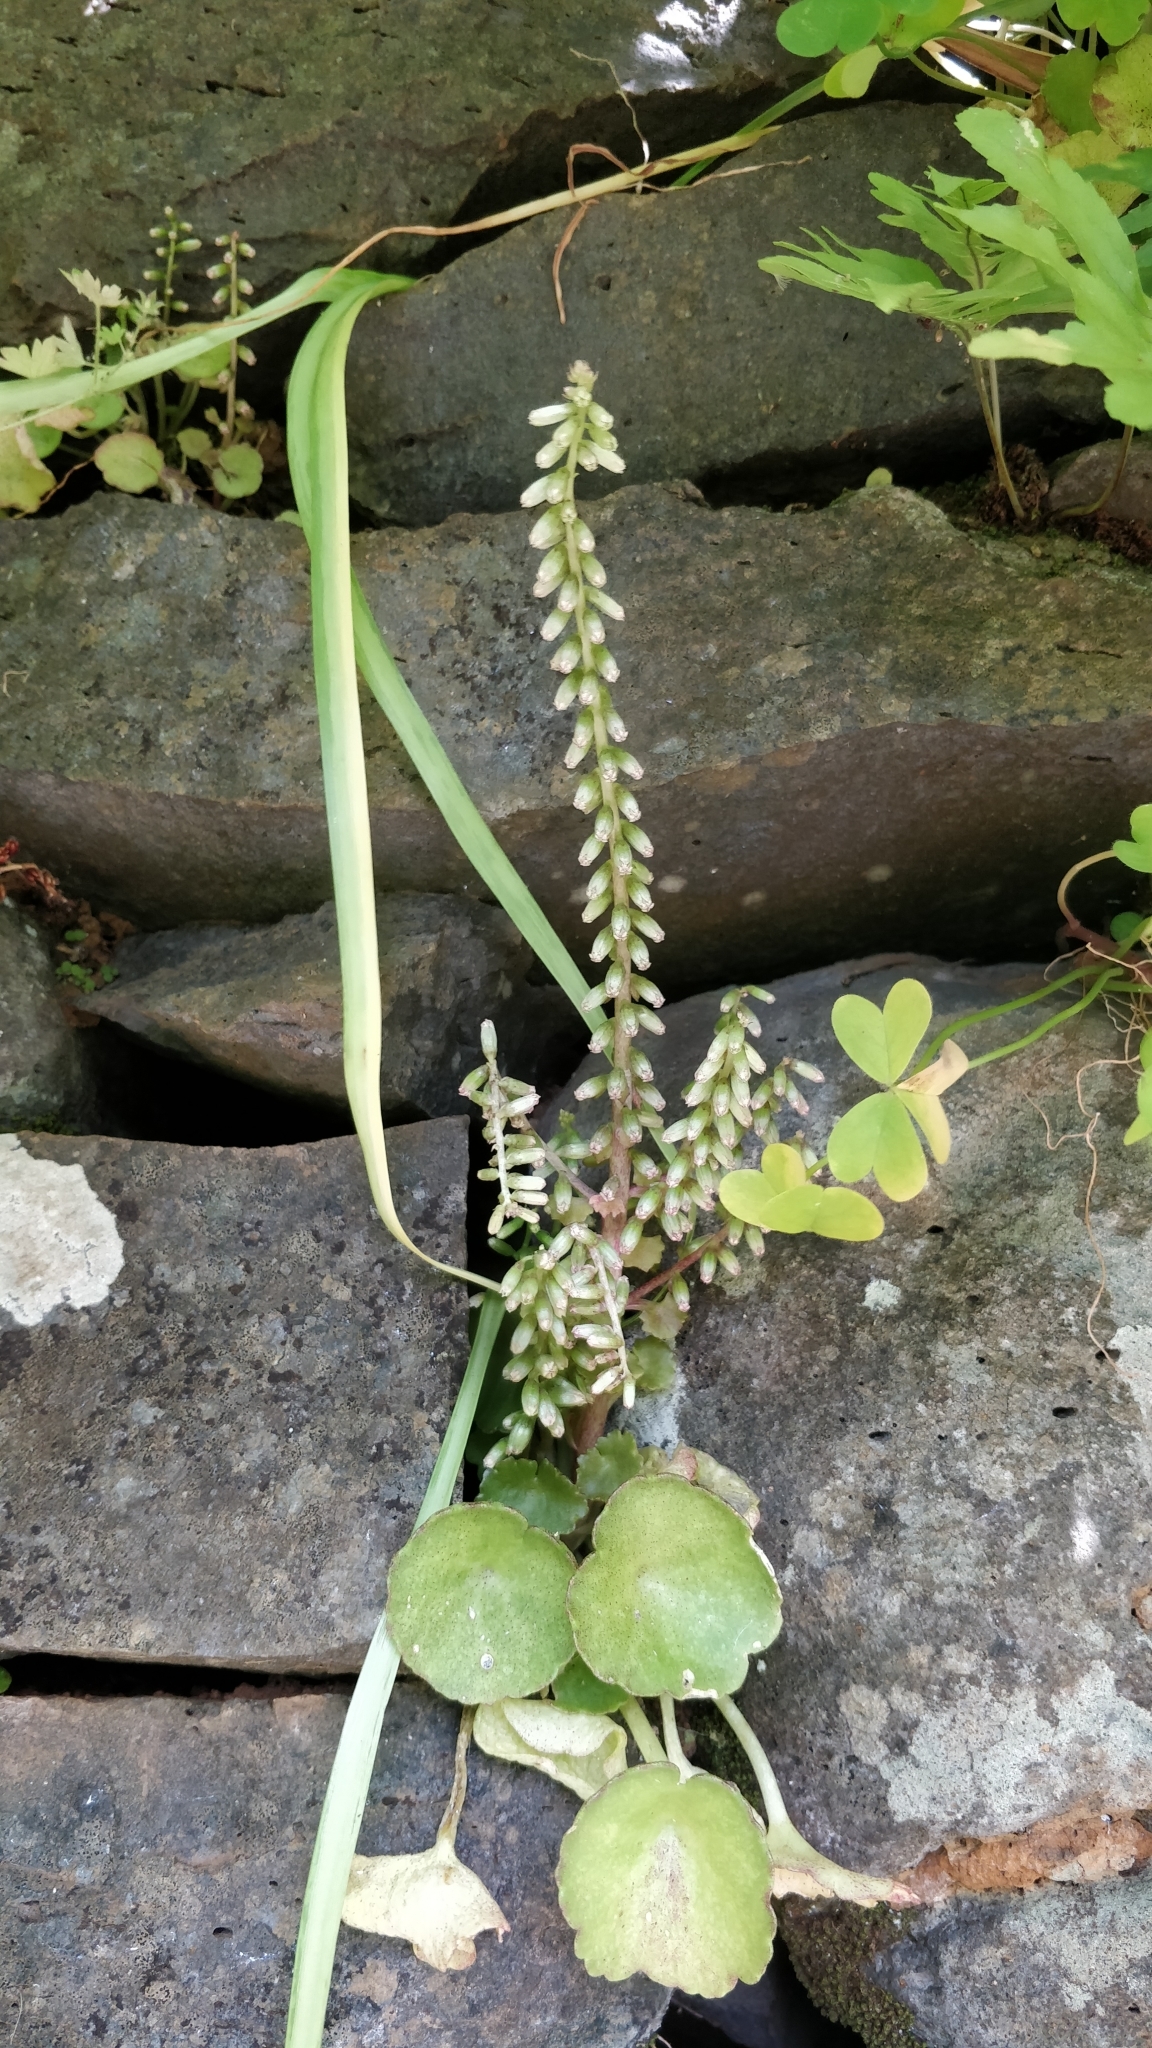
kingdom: Plantae
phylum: Tracheophyta
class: Magnoliopsida
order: Saxifragales
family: Crassulaceae
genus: Umbilicus
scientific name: Umbilicus rupestris
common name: Navelwort
